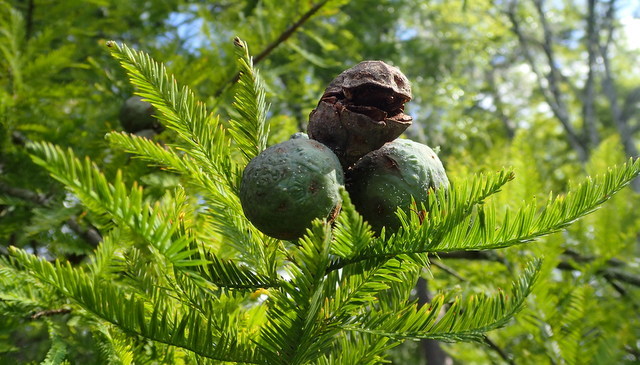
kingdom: Plantae
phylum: Tracheophyta
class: Pinopsida
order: Pinales
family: Cupressaceae
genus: Taxodium
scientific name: Taxodium distichum
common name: Bald cypress
